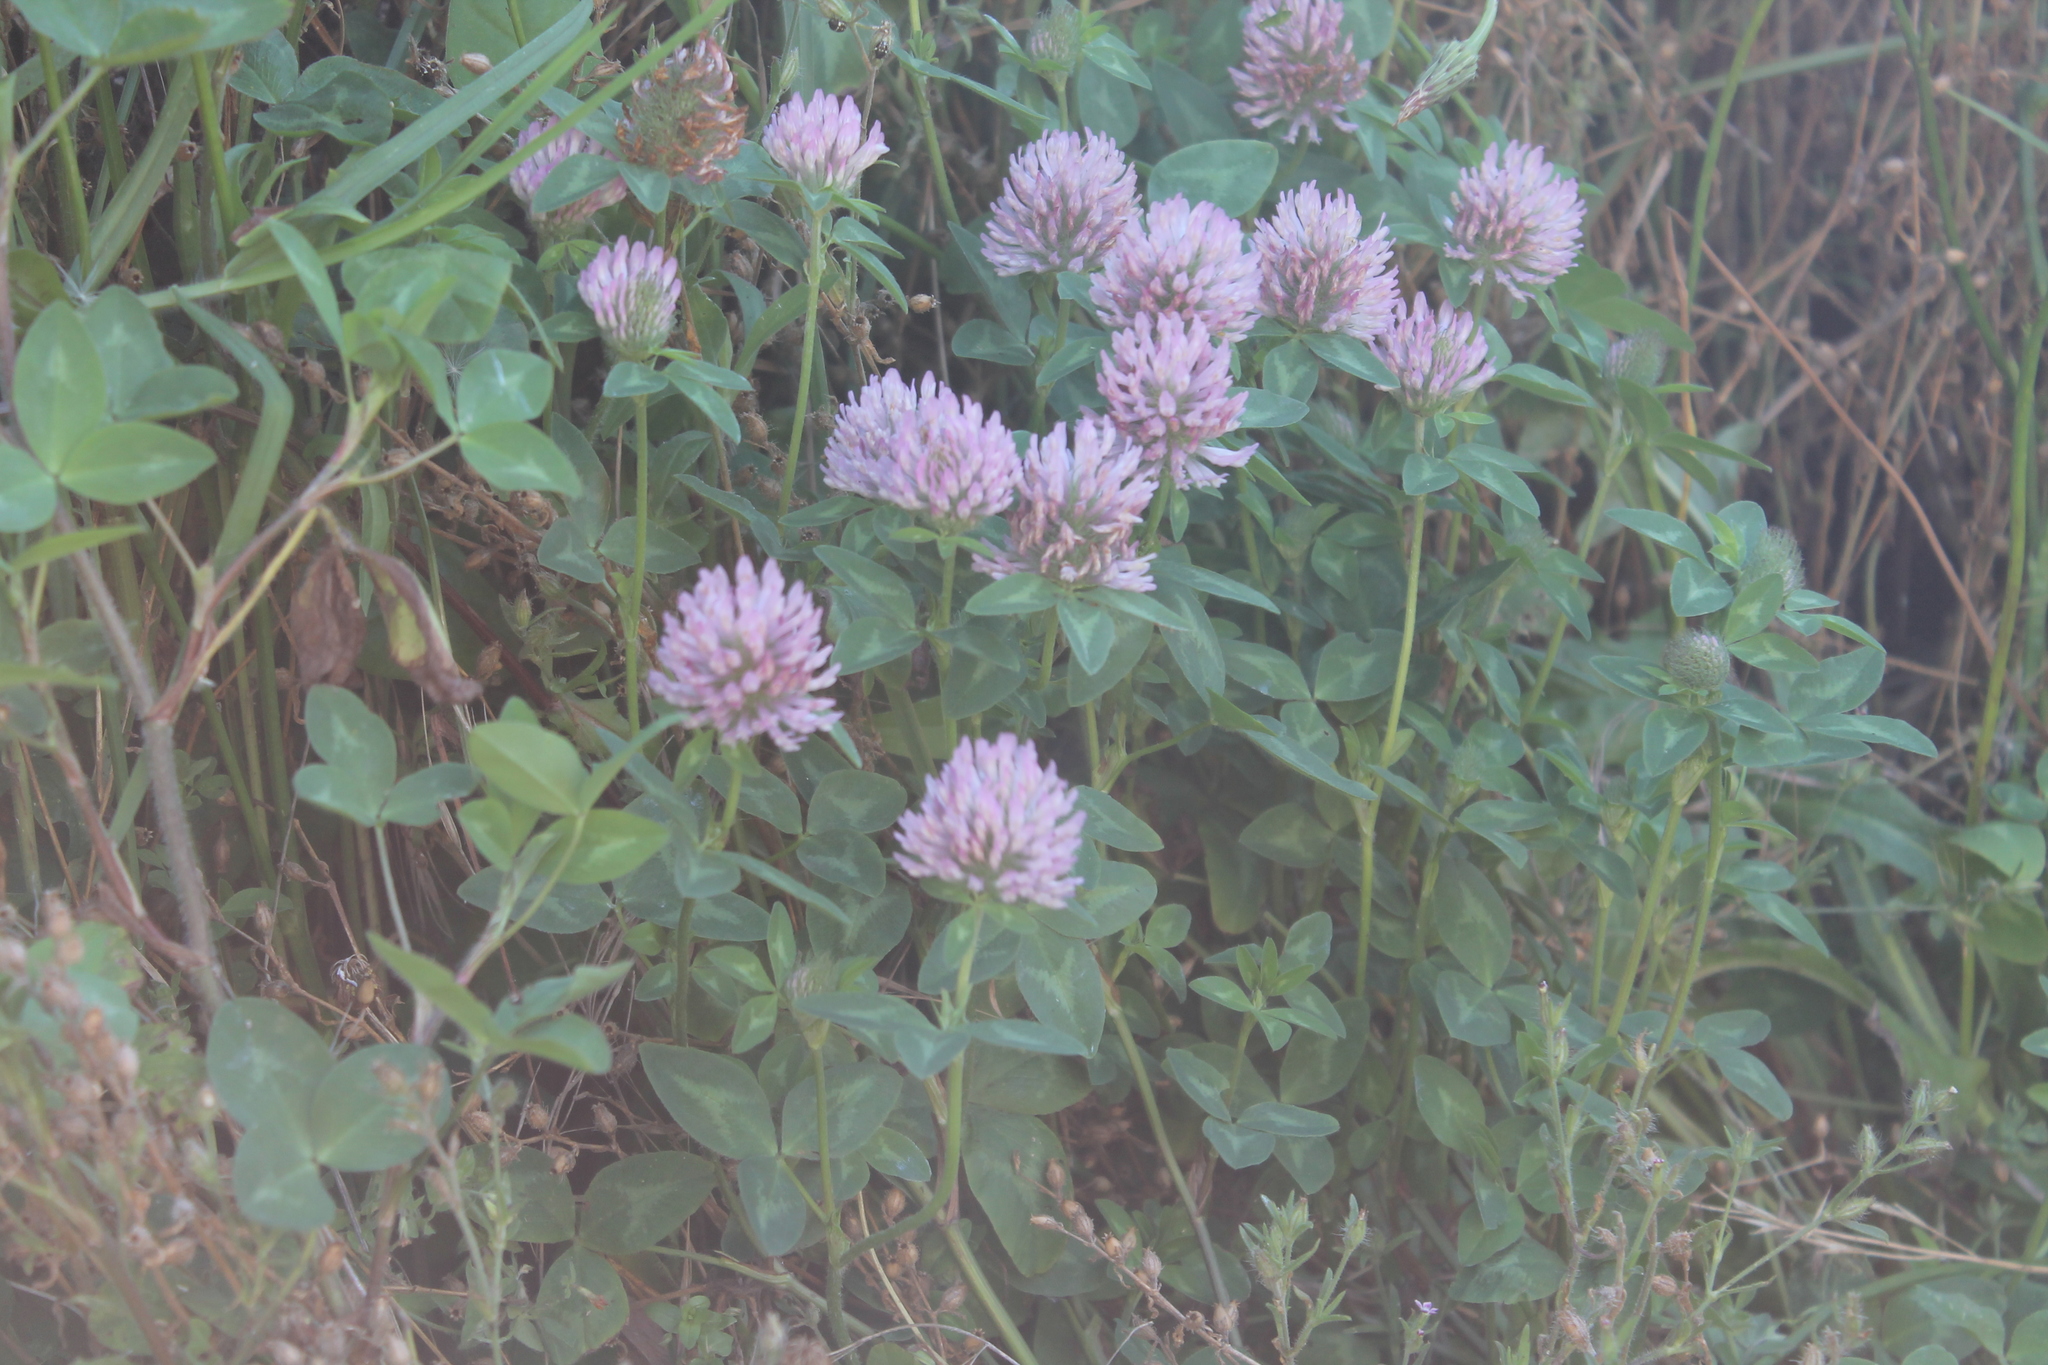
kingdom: Plantae
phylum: Tracheophyta
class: Magnoliopsida
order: Fabales
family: Fabaceae
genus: Trifolium
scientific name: Trifolium pratense
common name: Red clover
